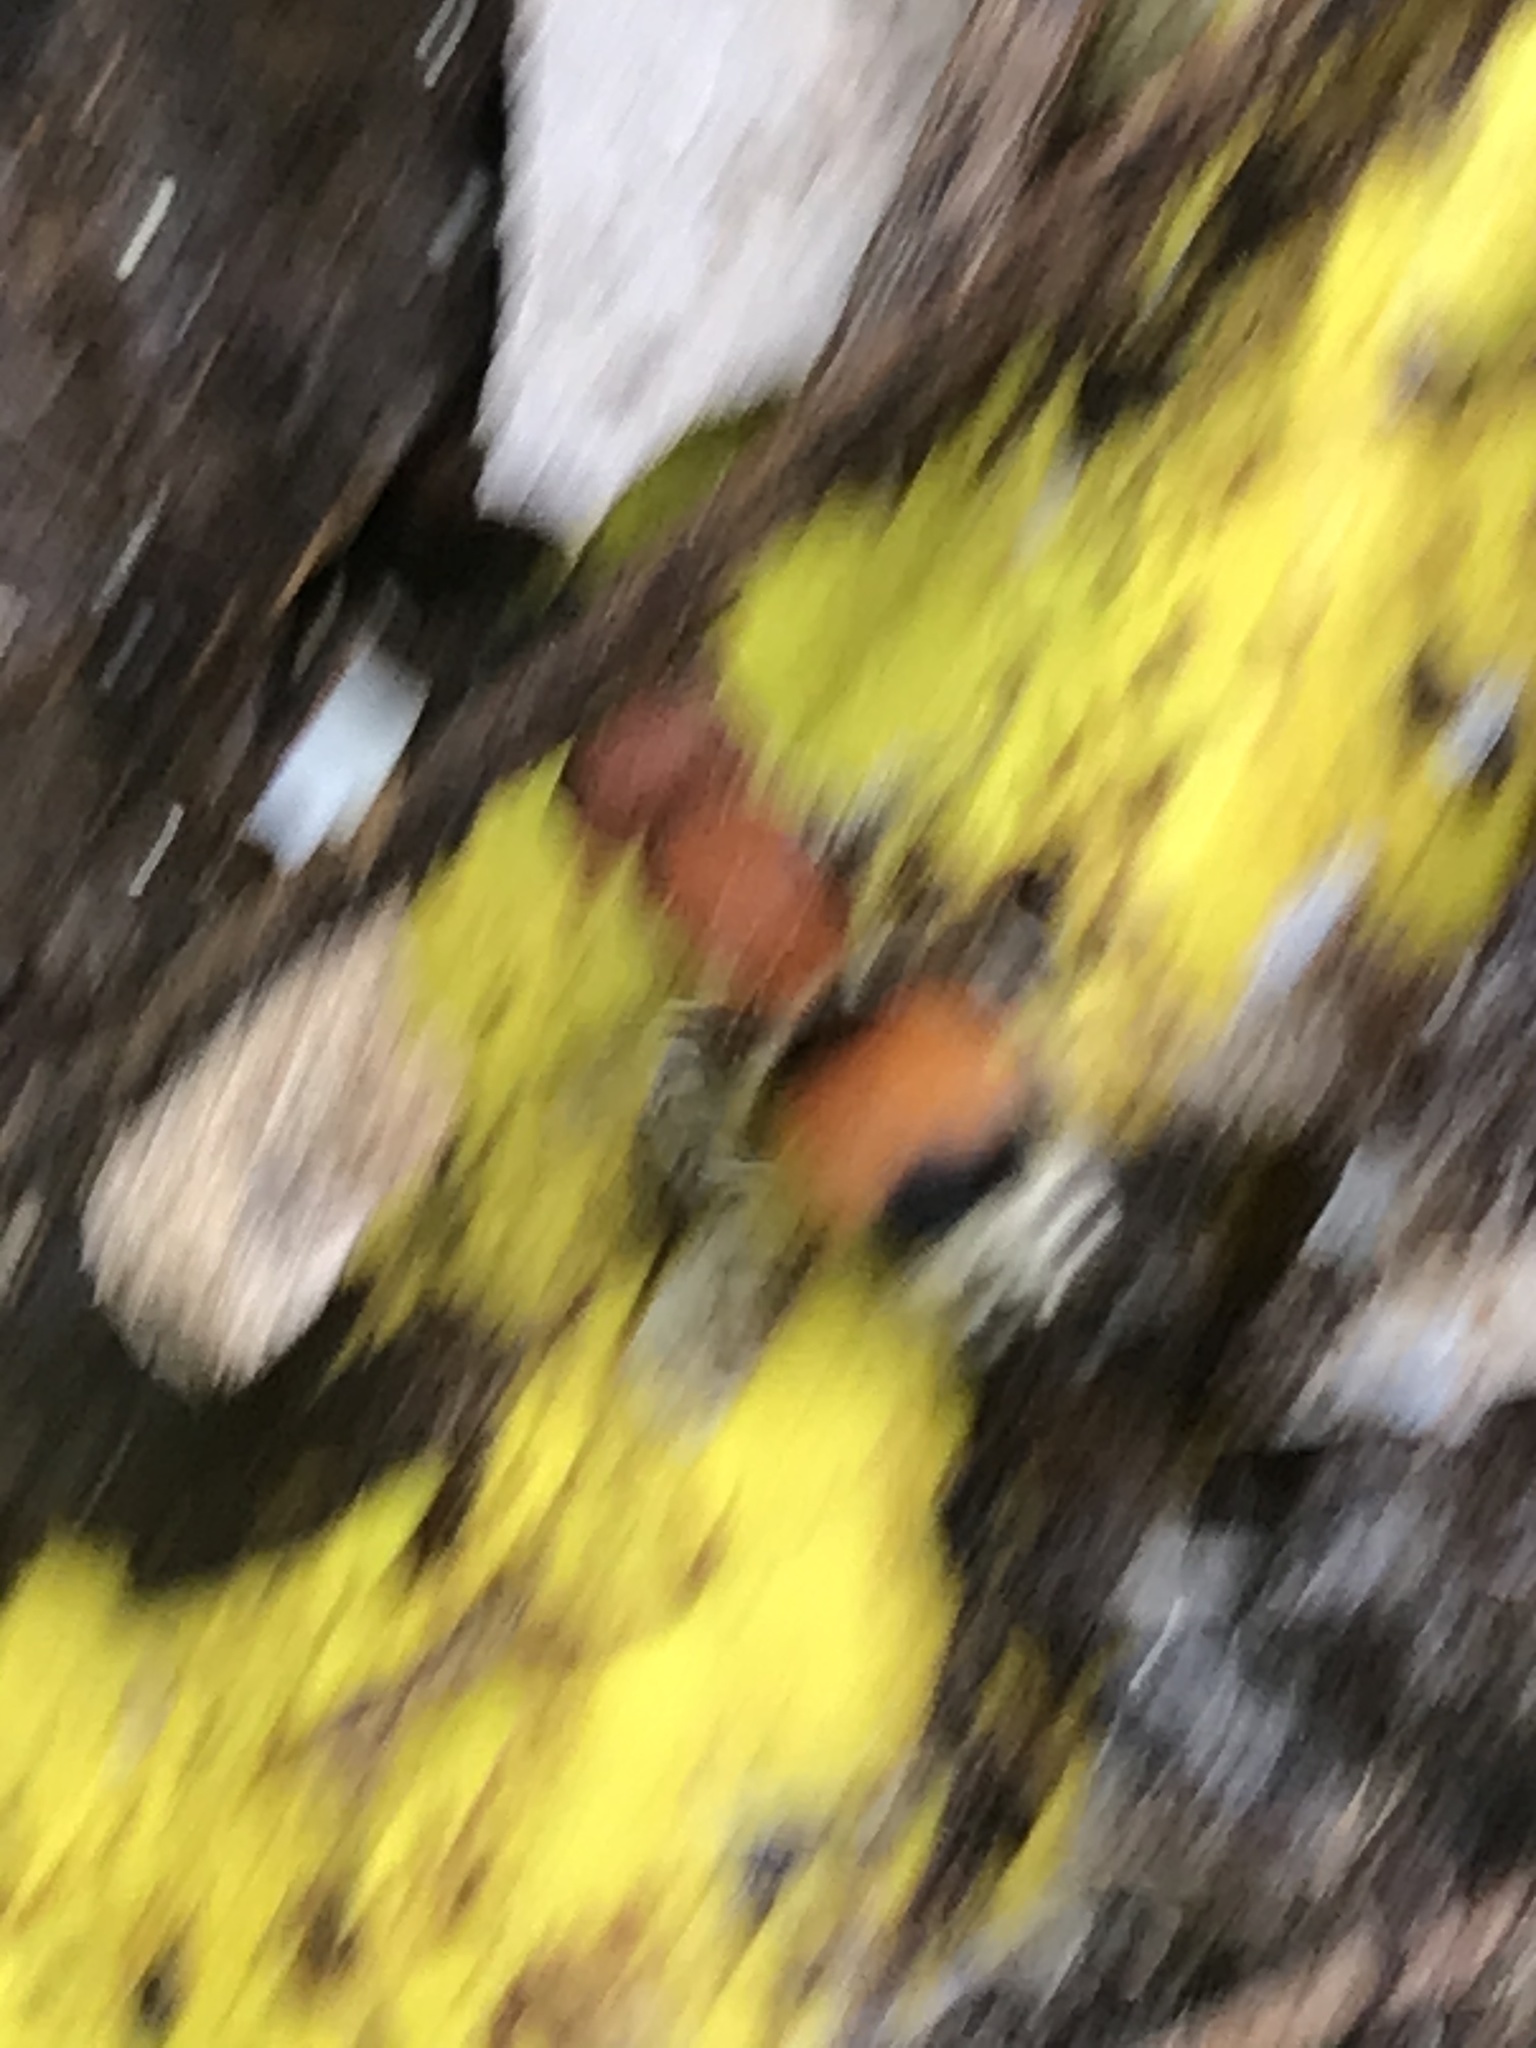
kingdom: Animalia
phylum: Arthropoda
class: Insecta
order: Hymenoptera
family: Mutillidae
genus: Pseudomethoca
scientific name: Pseudomethoca
